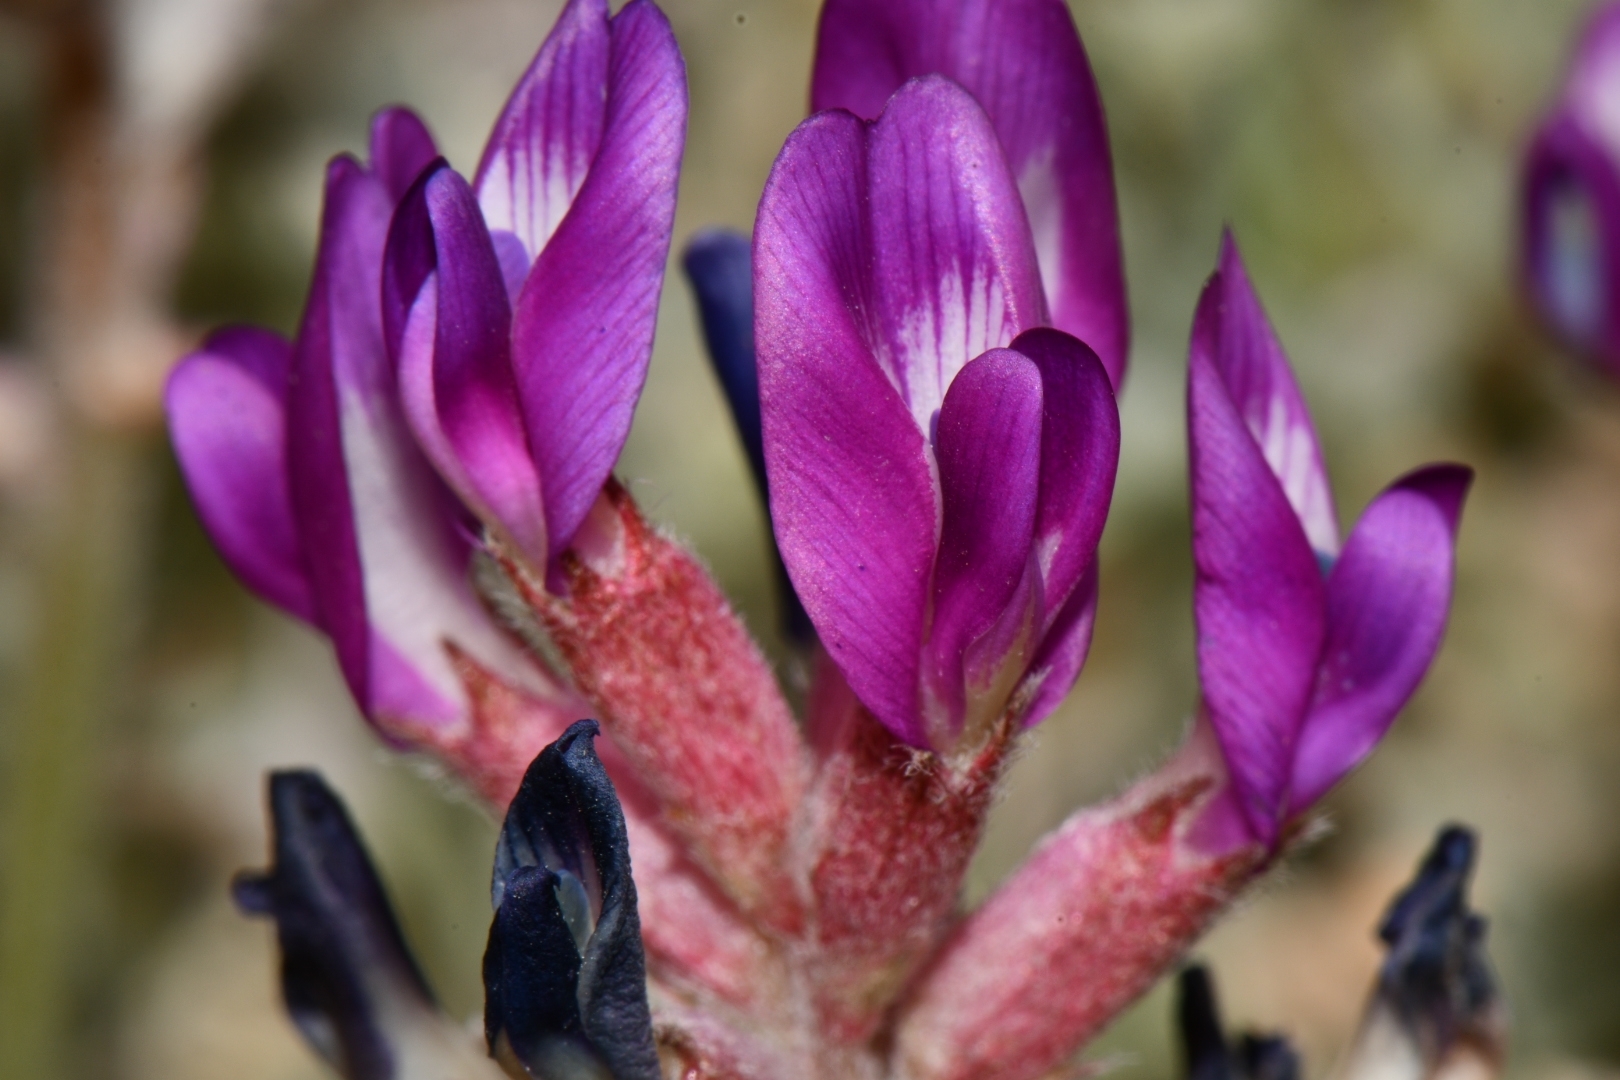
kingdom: Plantae
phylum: Tracheophyta
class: Magnoliopsida
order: Fabales
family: Fabaceae
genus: Astragalus
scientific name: Astragalus amphioxys
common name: Crescent milk-vetch
